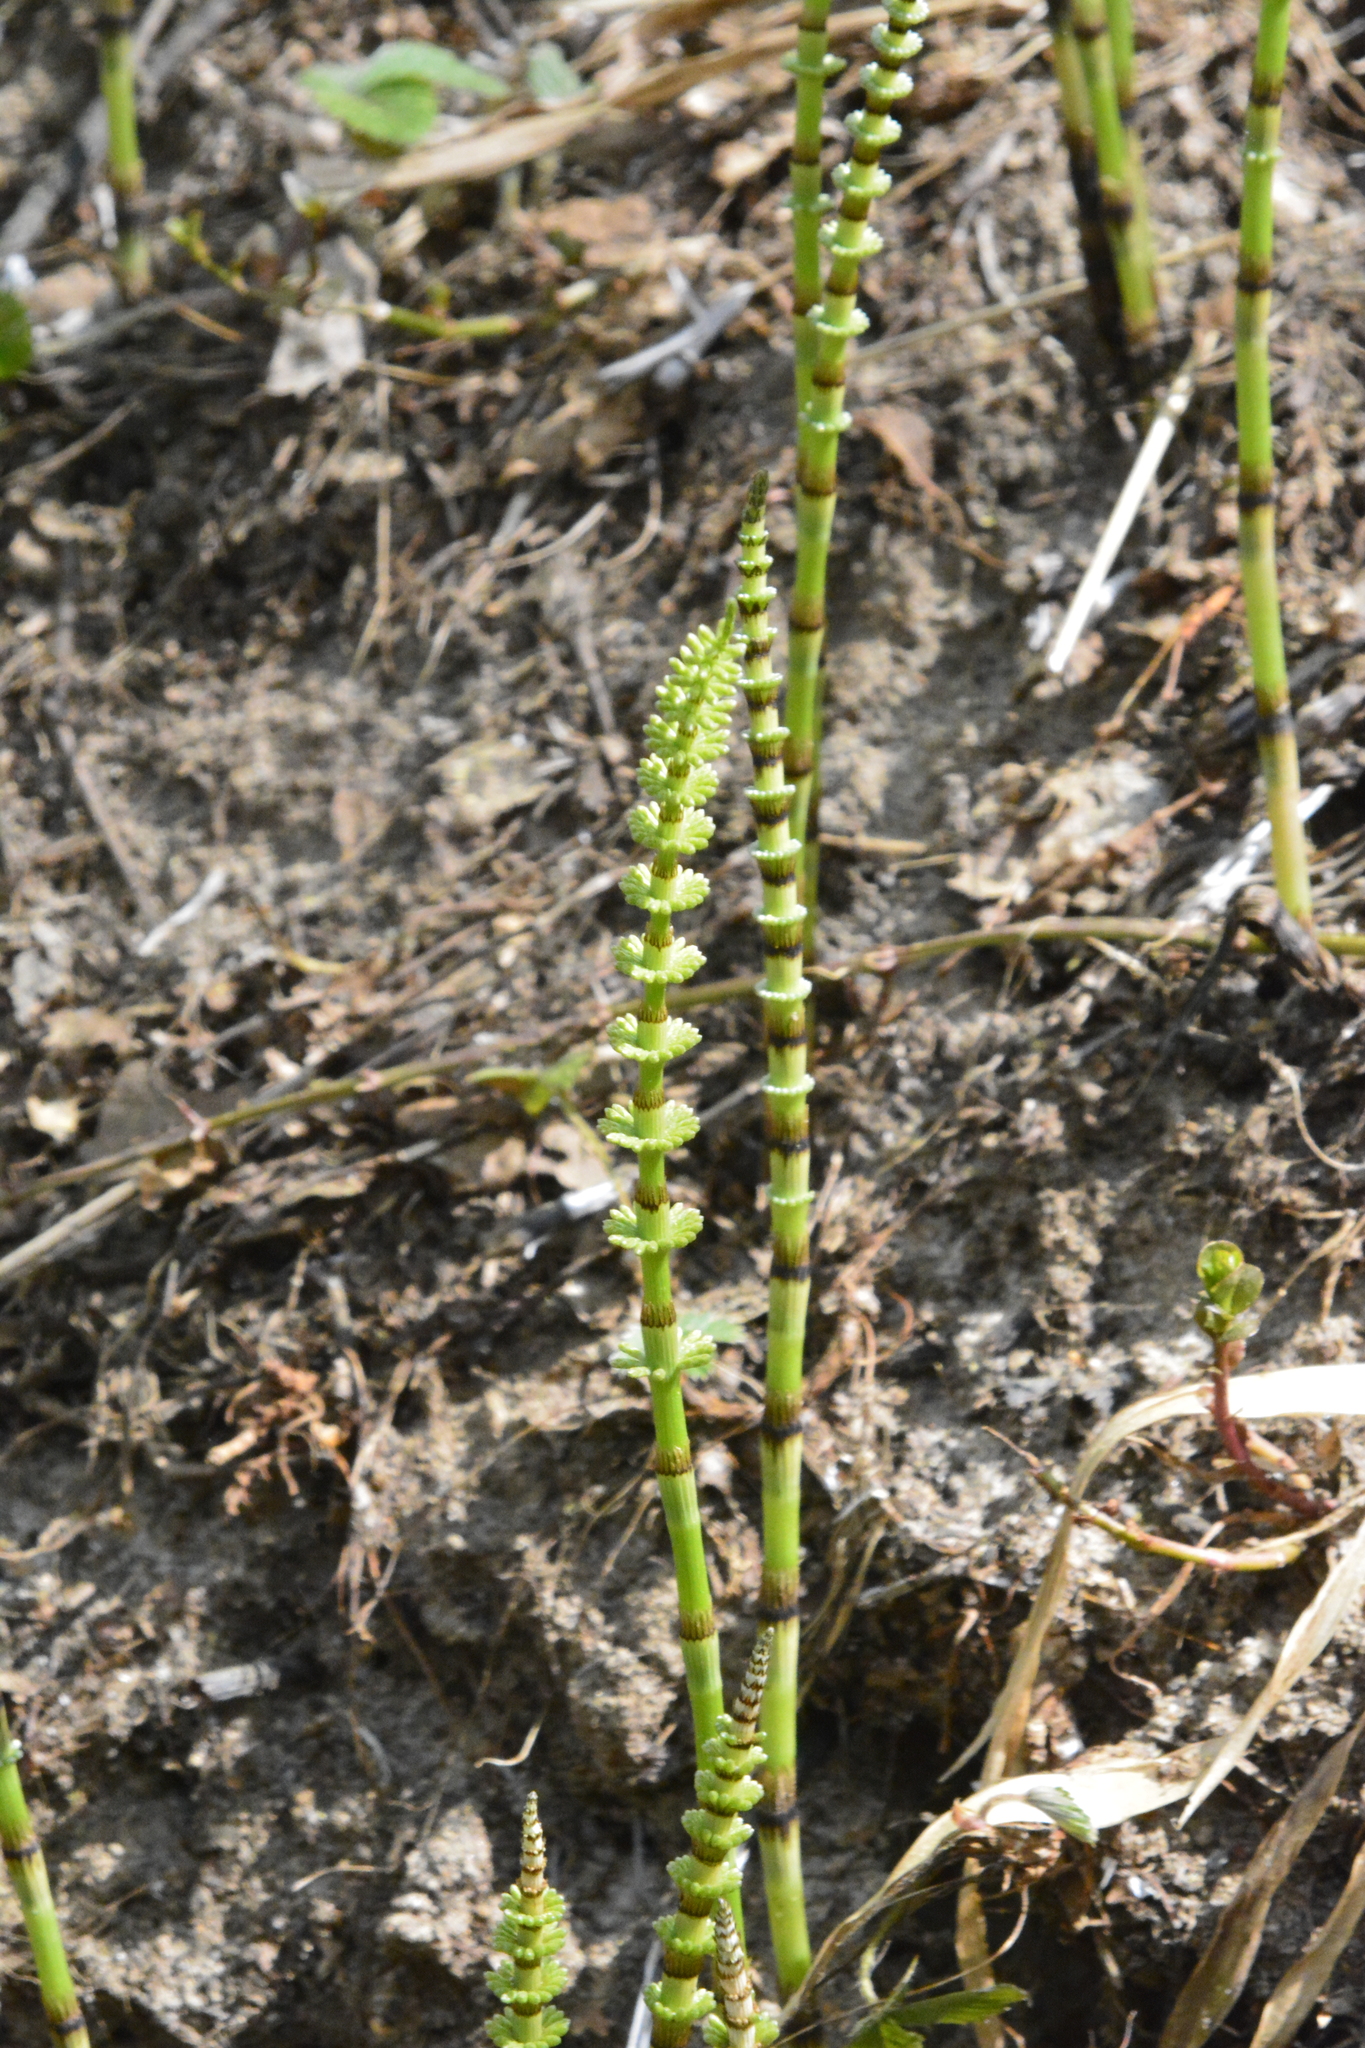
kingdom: Plantae
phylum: Tracheophyta
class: Polypodiopsida
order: Equisetales
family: Equisetaceae
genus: Equisetum
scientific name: Equisetum pratense
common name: Meadow horsetail
